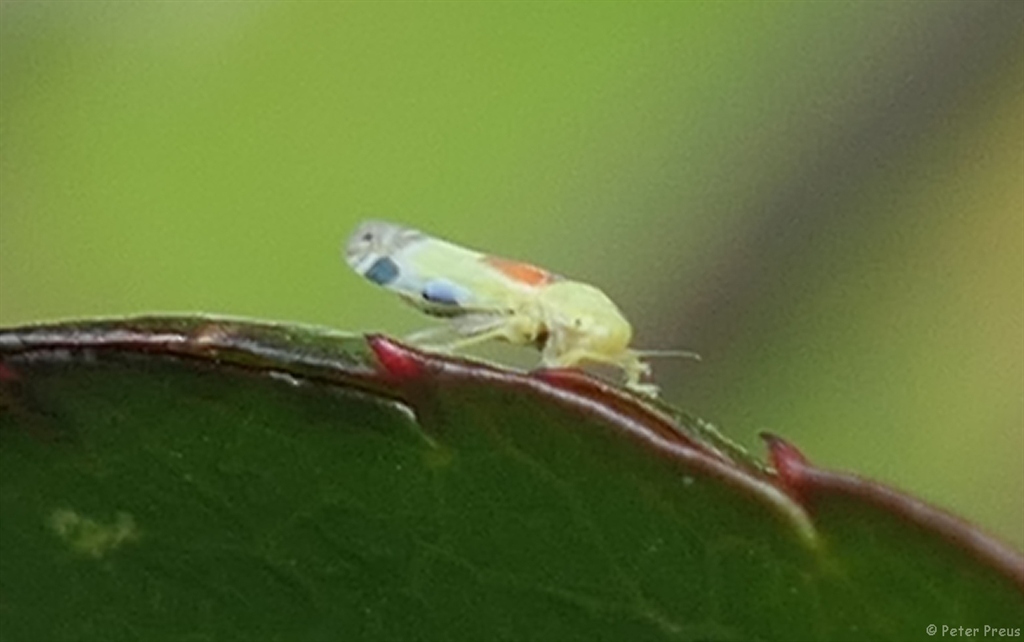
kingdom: Animalia
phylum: Arthropoda
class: Insecta
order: Hemiptera
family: Cicadellidae
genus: Zyginella
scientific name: Zyginella pulchra
